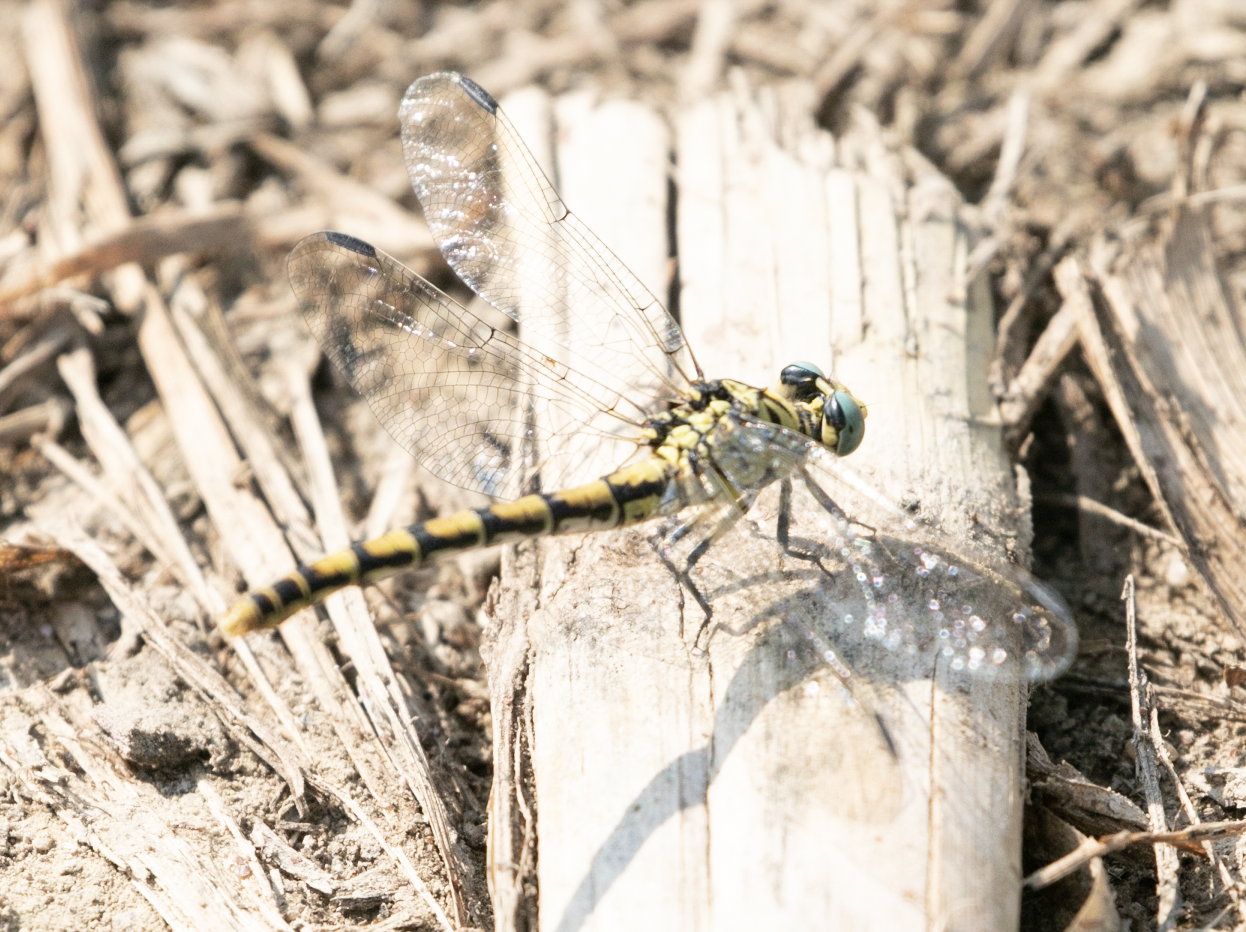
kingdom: Animalia
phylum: Arthropoda
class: Insecta
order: Odonata
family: Gomphidae
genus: Onychogomphus
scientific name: Onychogomphus forcipatus
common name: Small pincertail
